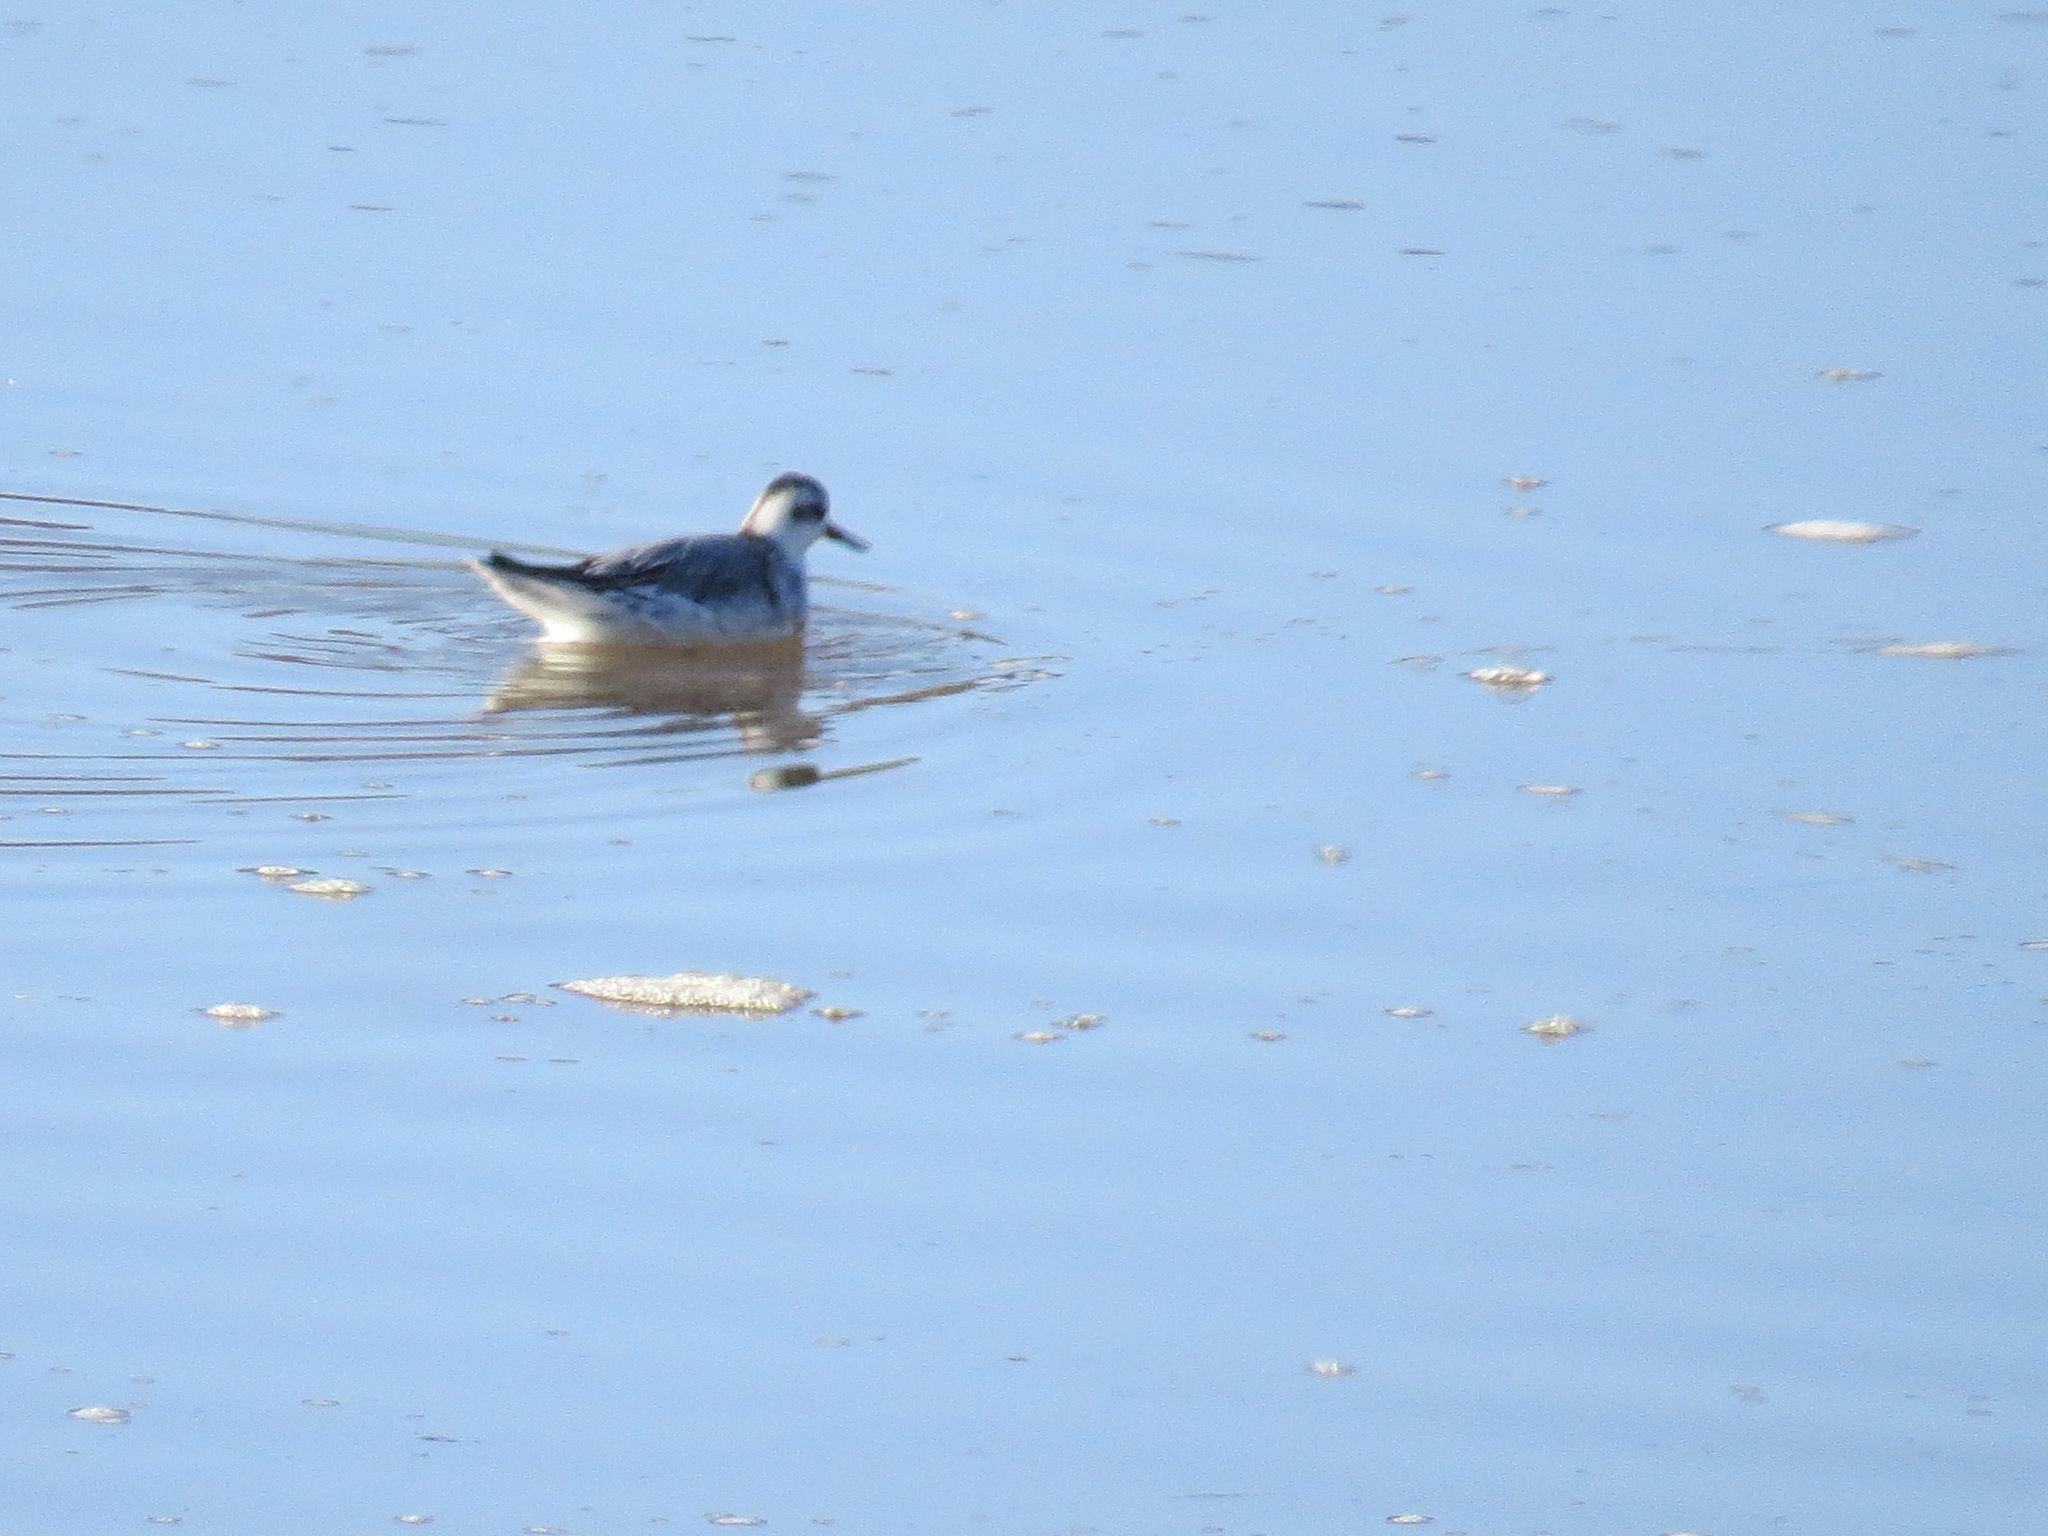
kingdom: Animalia
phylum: Chordata
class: Aves
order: Charadriiformes
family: Scolopacidae
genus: Phalaropus
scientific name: Phalaropus fulicarius
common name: Red phalarope
